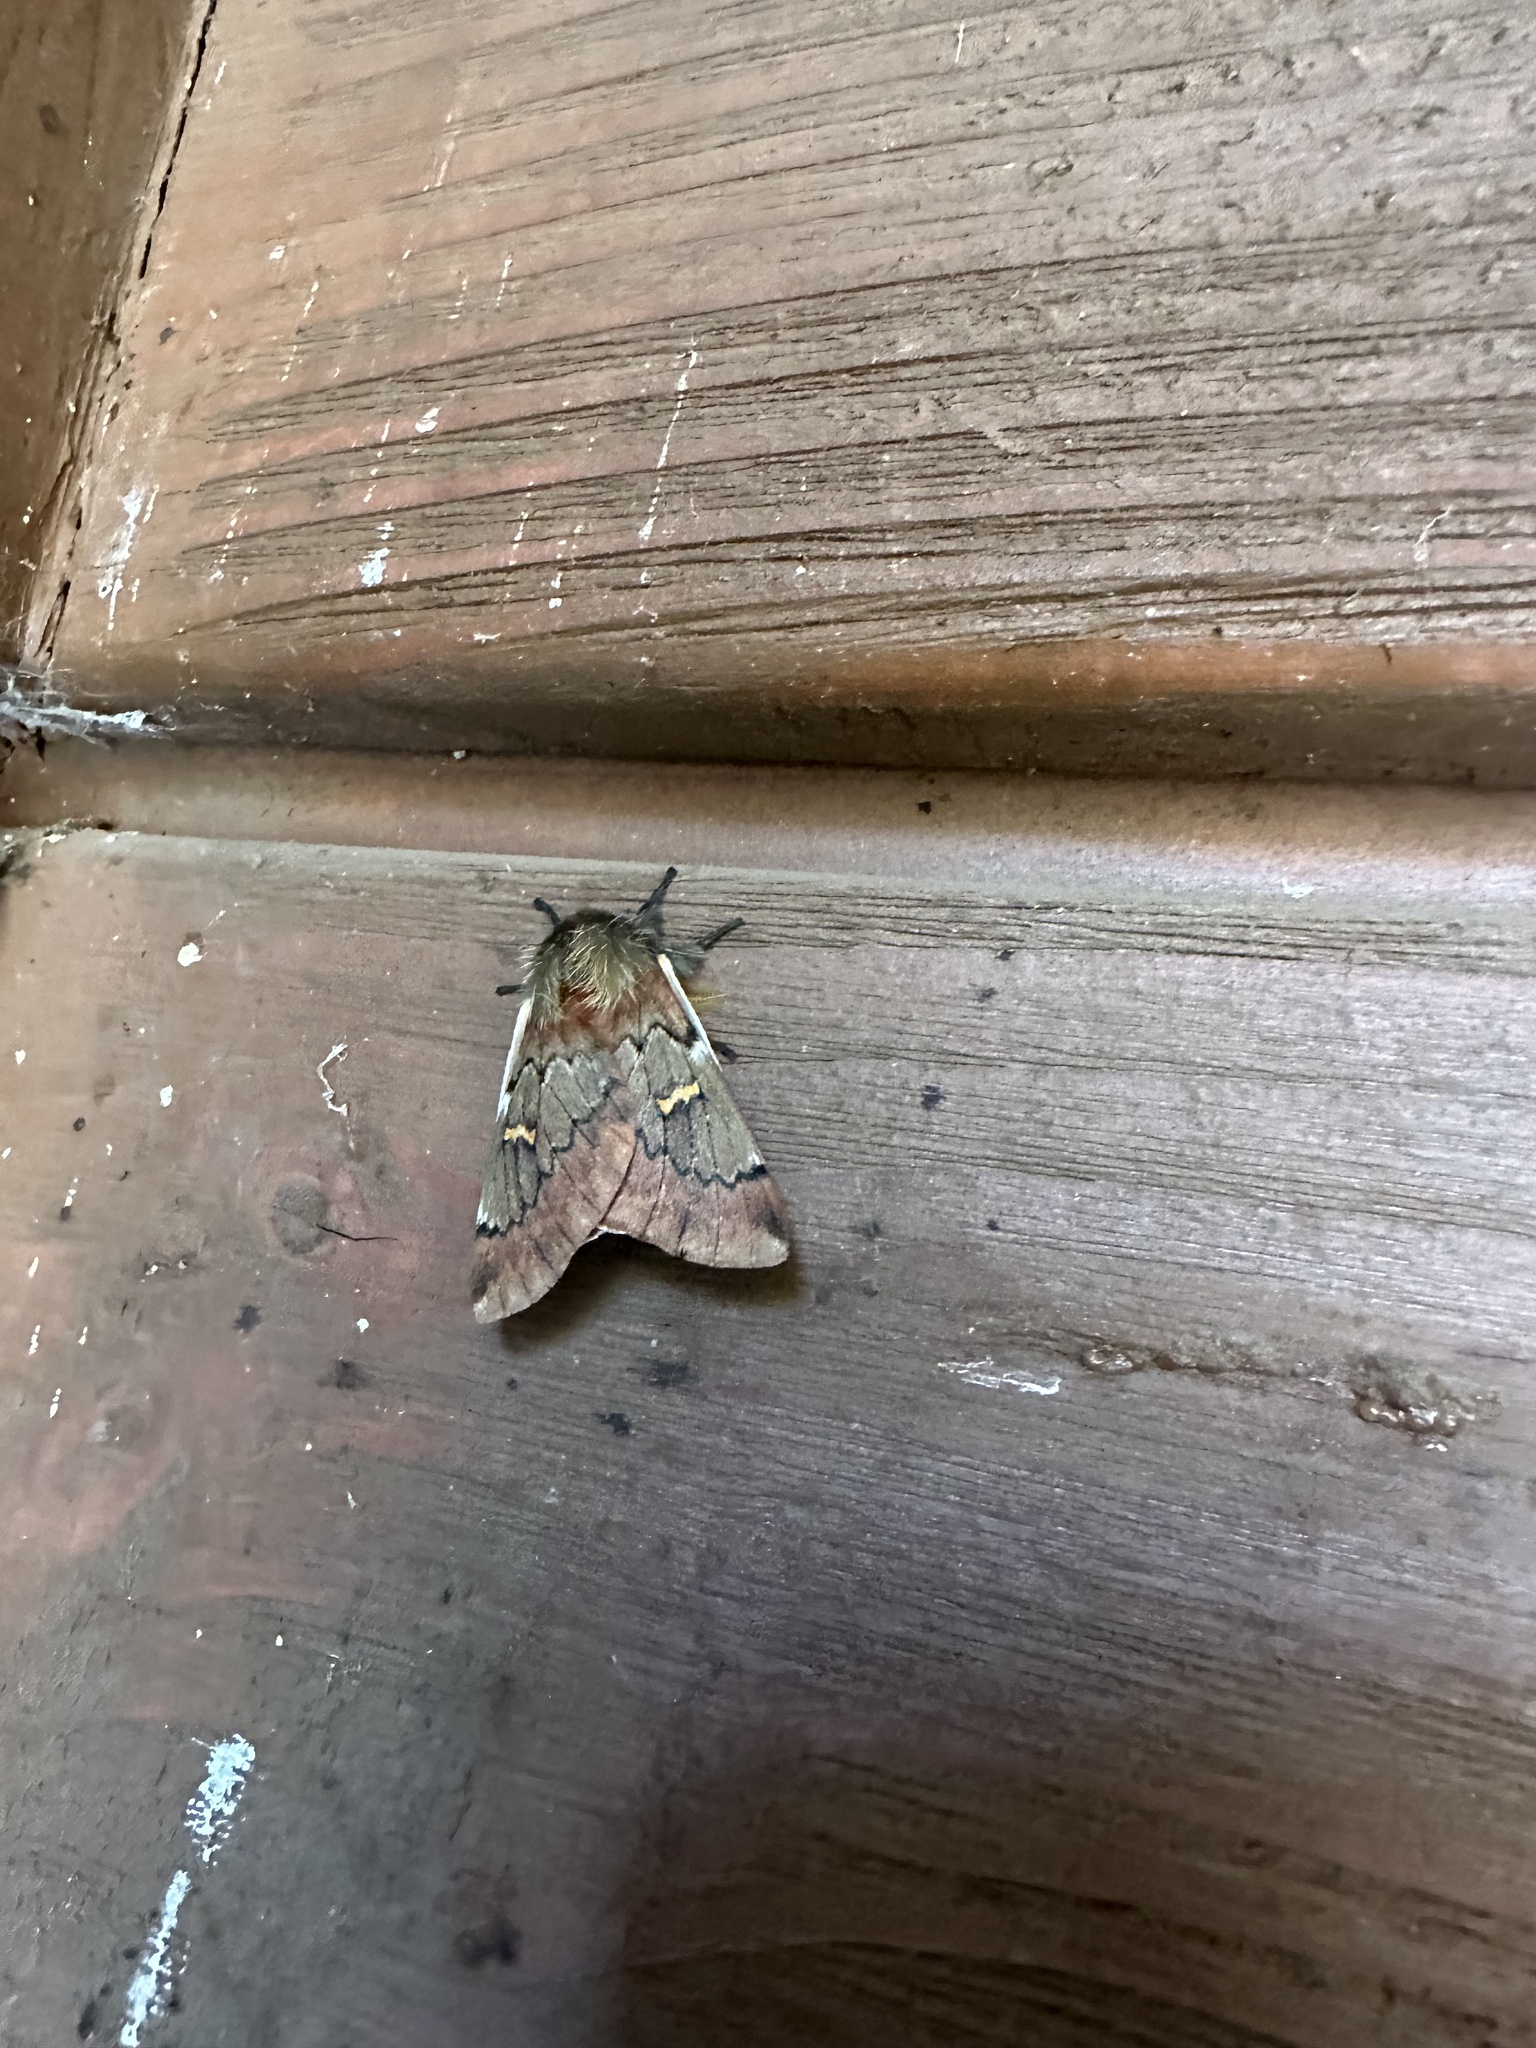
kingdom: Animalia
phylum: Arthropoda
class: Insecta
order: Lepidoptera
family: Saturniidae
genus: Ormiscodes
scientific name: Ormiscodes joiceyi
